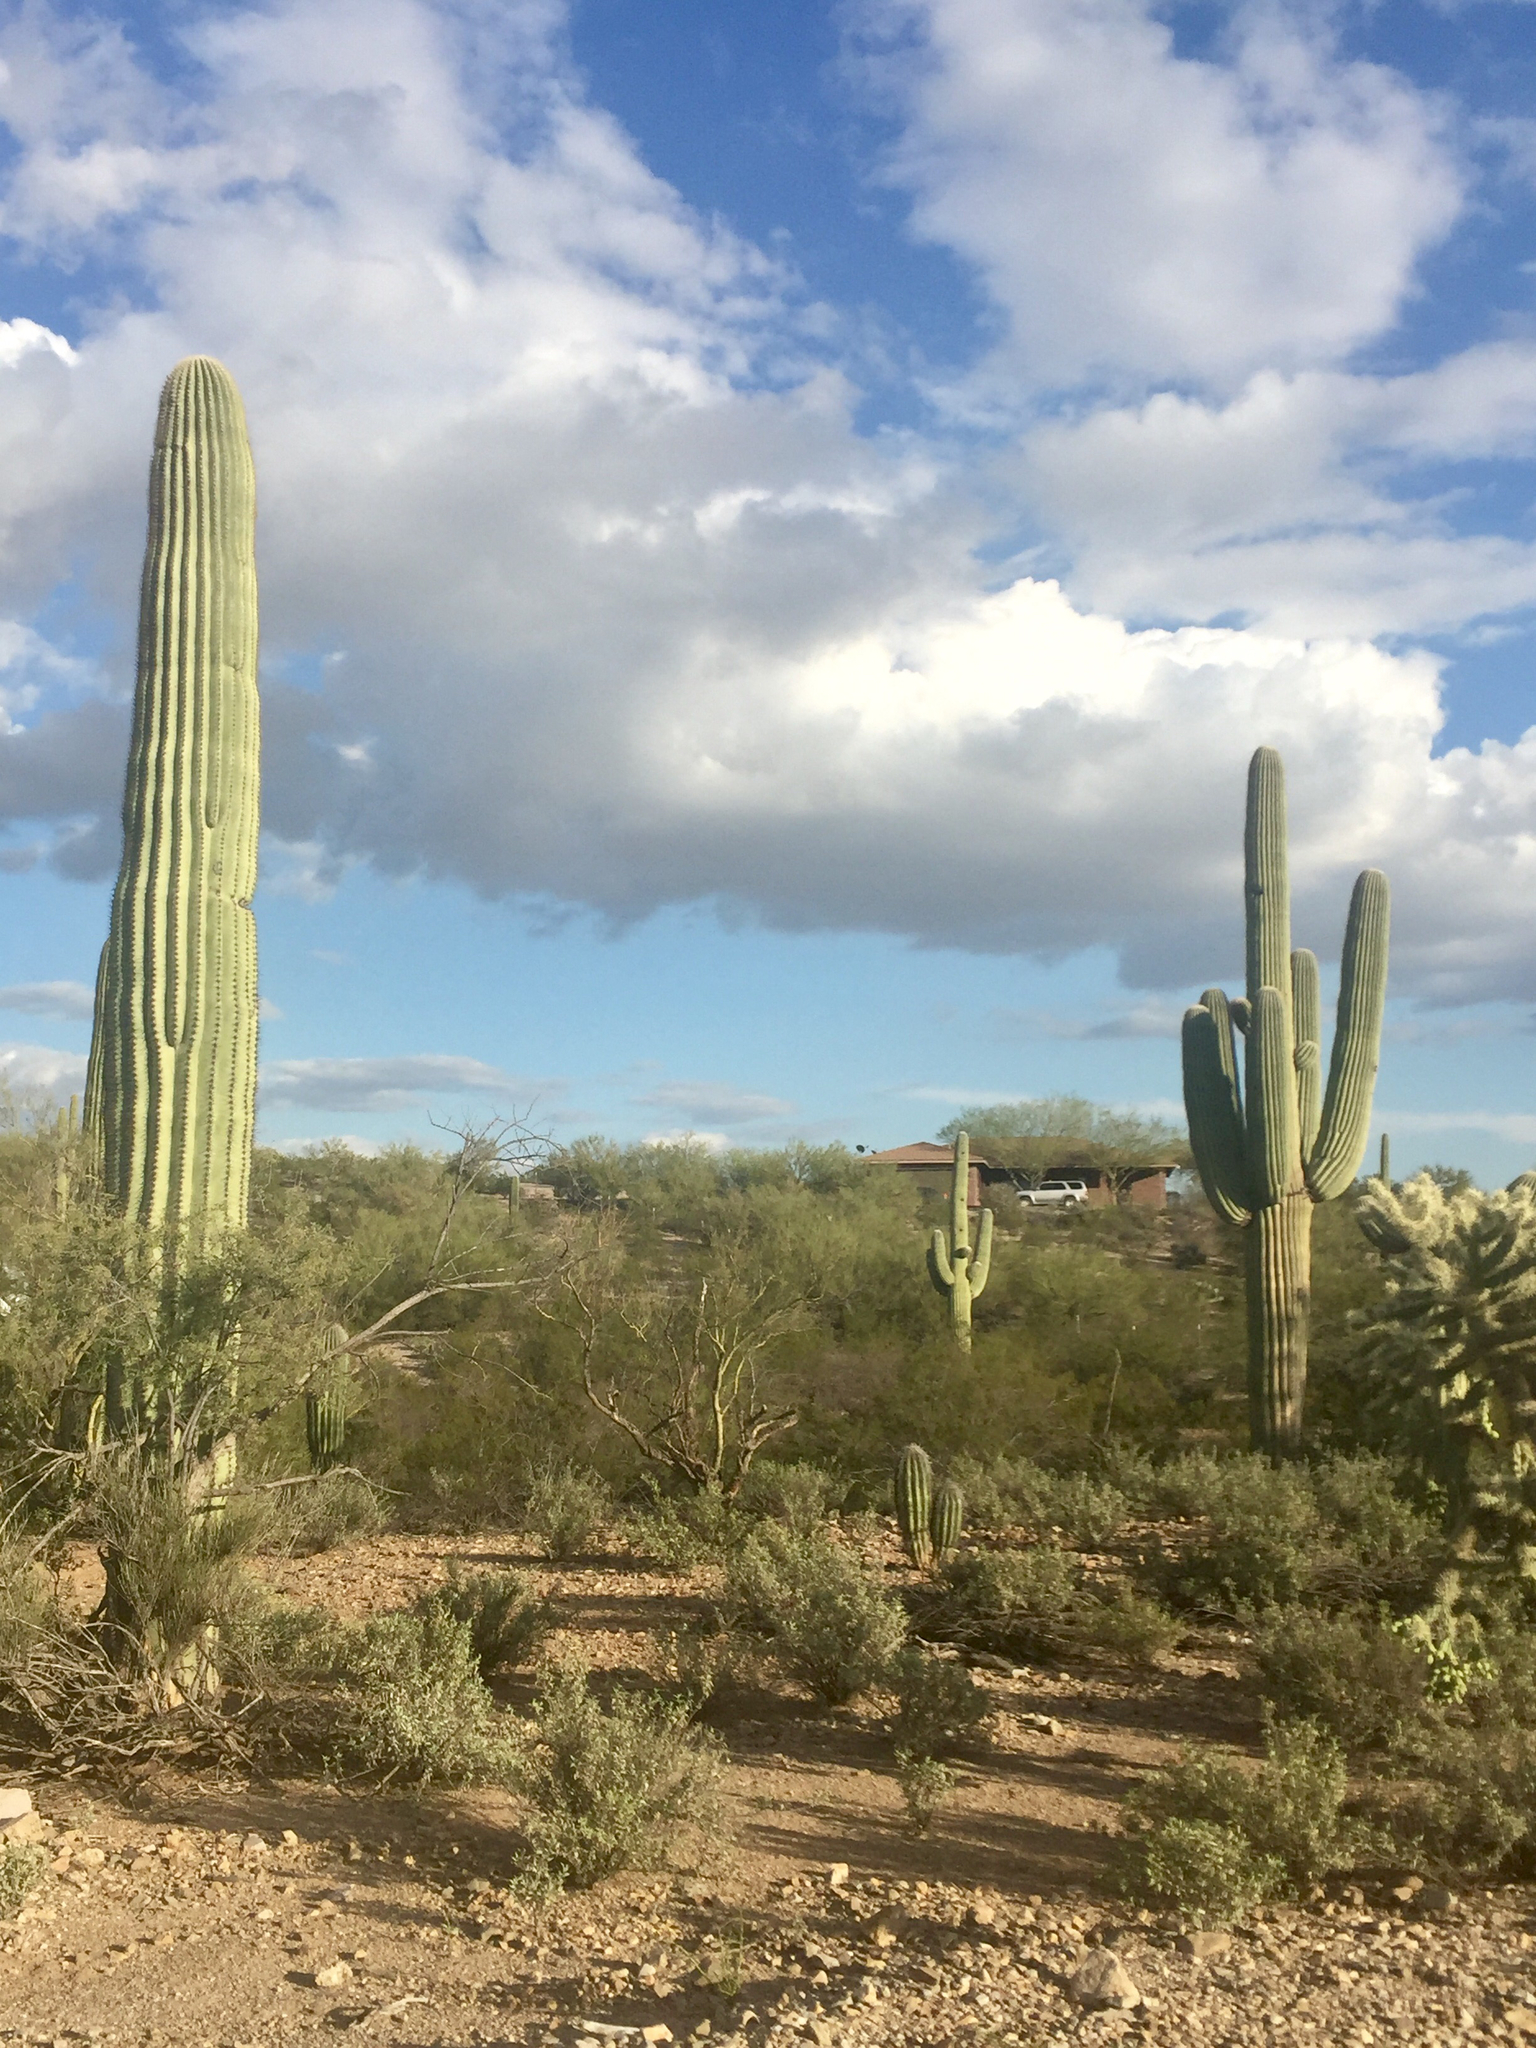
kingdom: Plantae
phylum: Tracheophyta
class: Magnoliopsida
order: Caryophyllales
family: Cactaceae
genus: Carnegiea
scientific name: Carnegiea gigantea
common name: Saguaro
